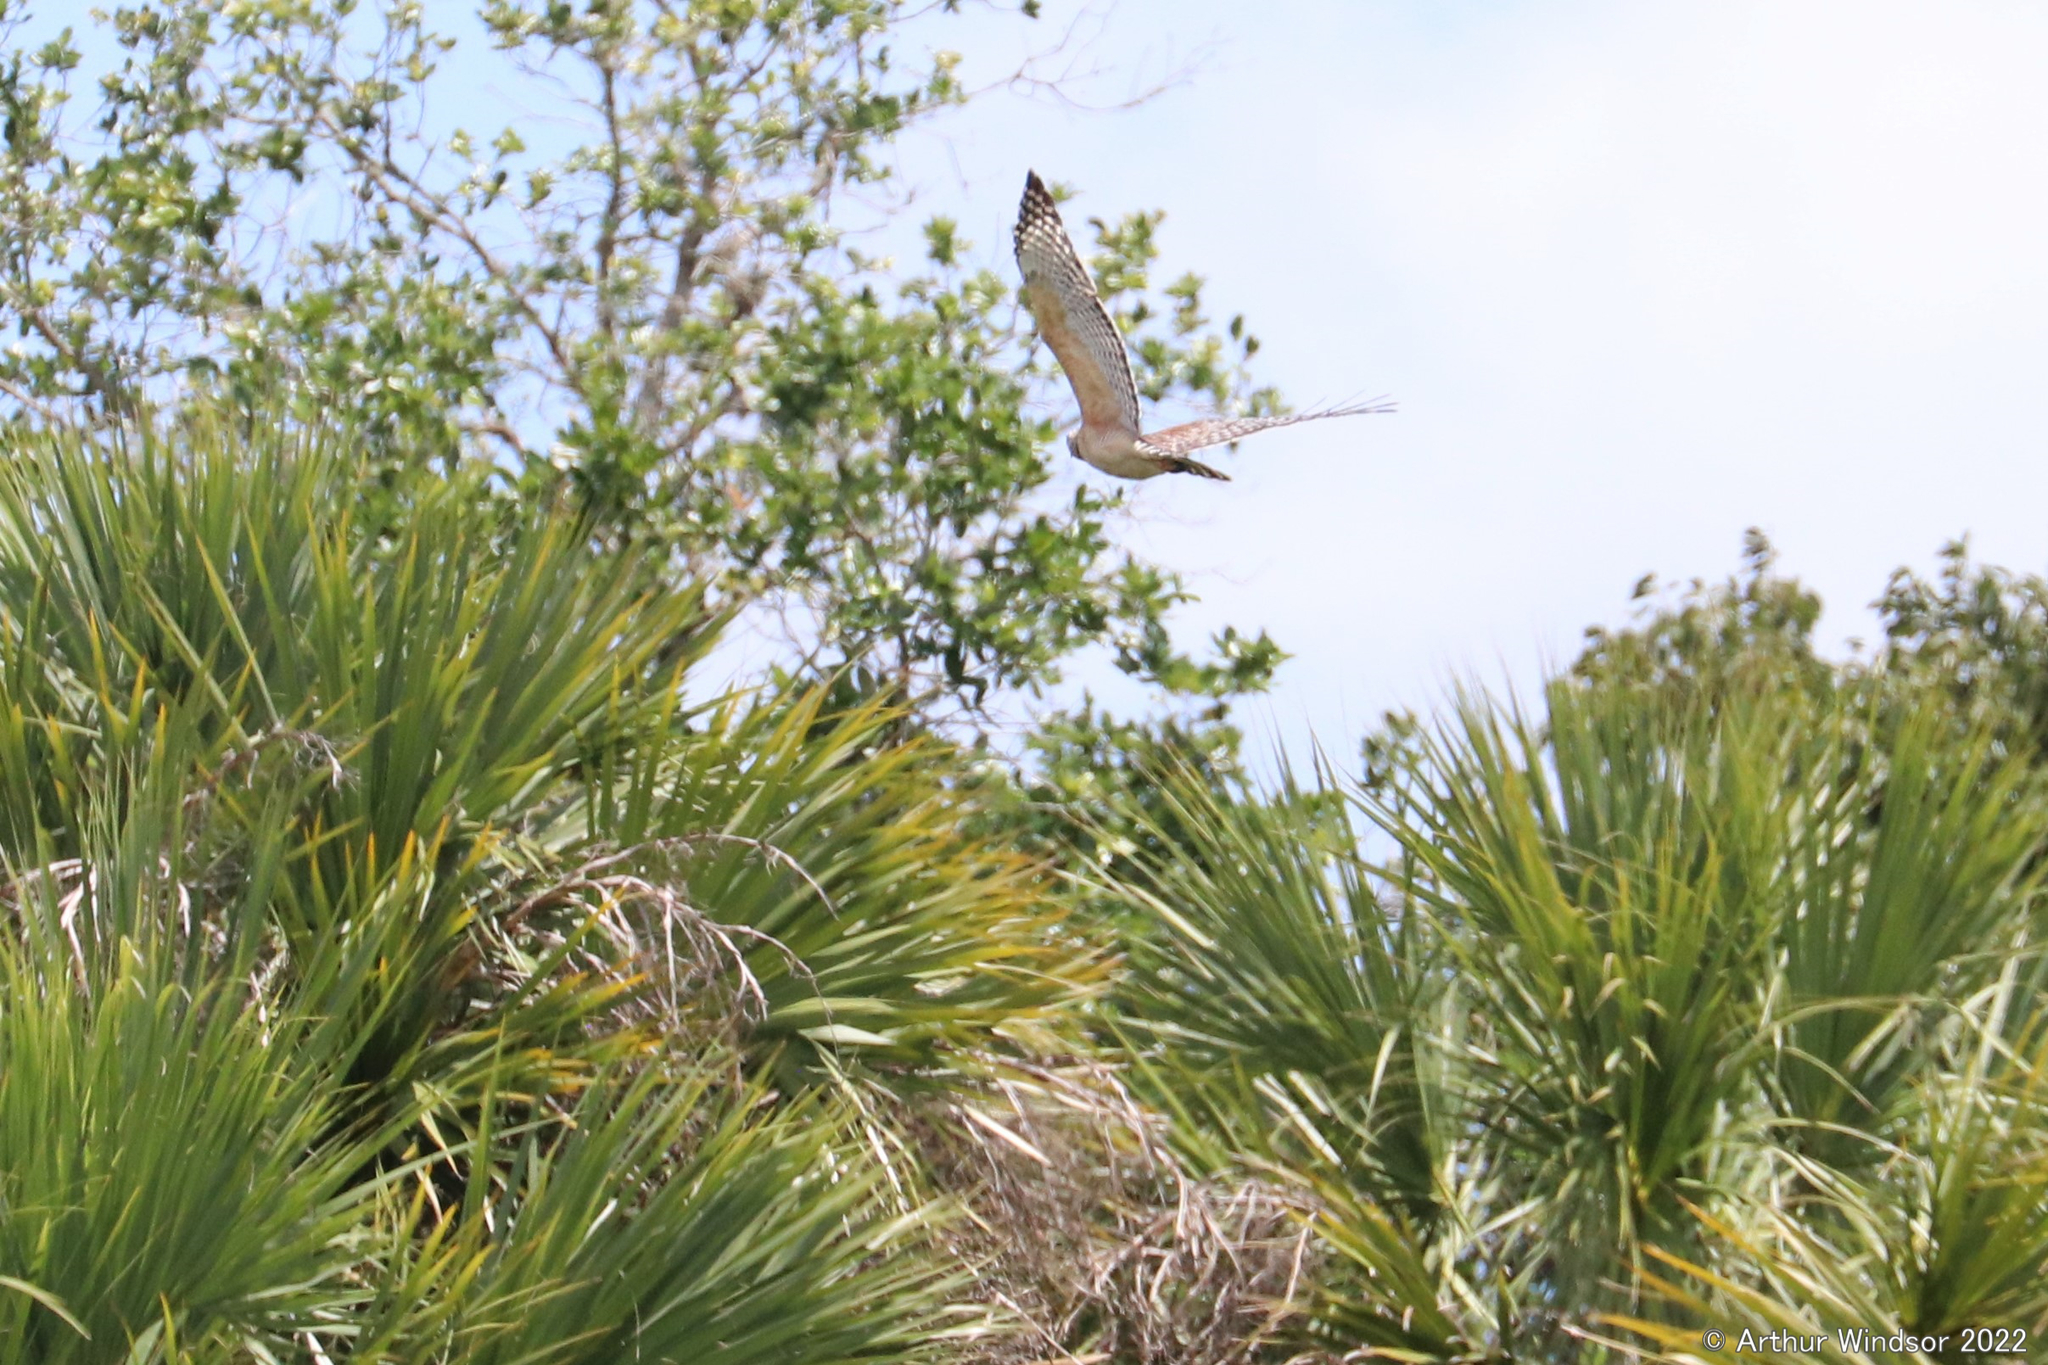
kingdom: Animalia
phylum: Chordata
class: Aves
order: Accipitriformes
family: Accipitridae
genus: Buteo
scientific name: Buteo lineatus
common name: Red-shouldered hawk
